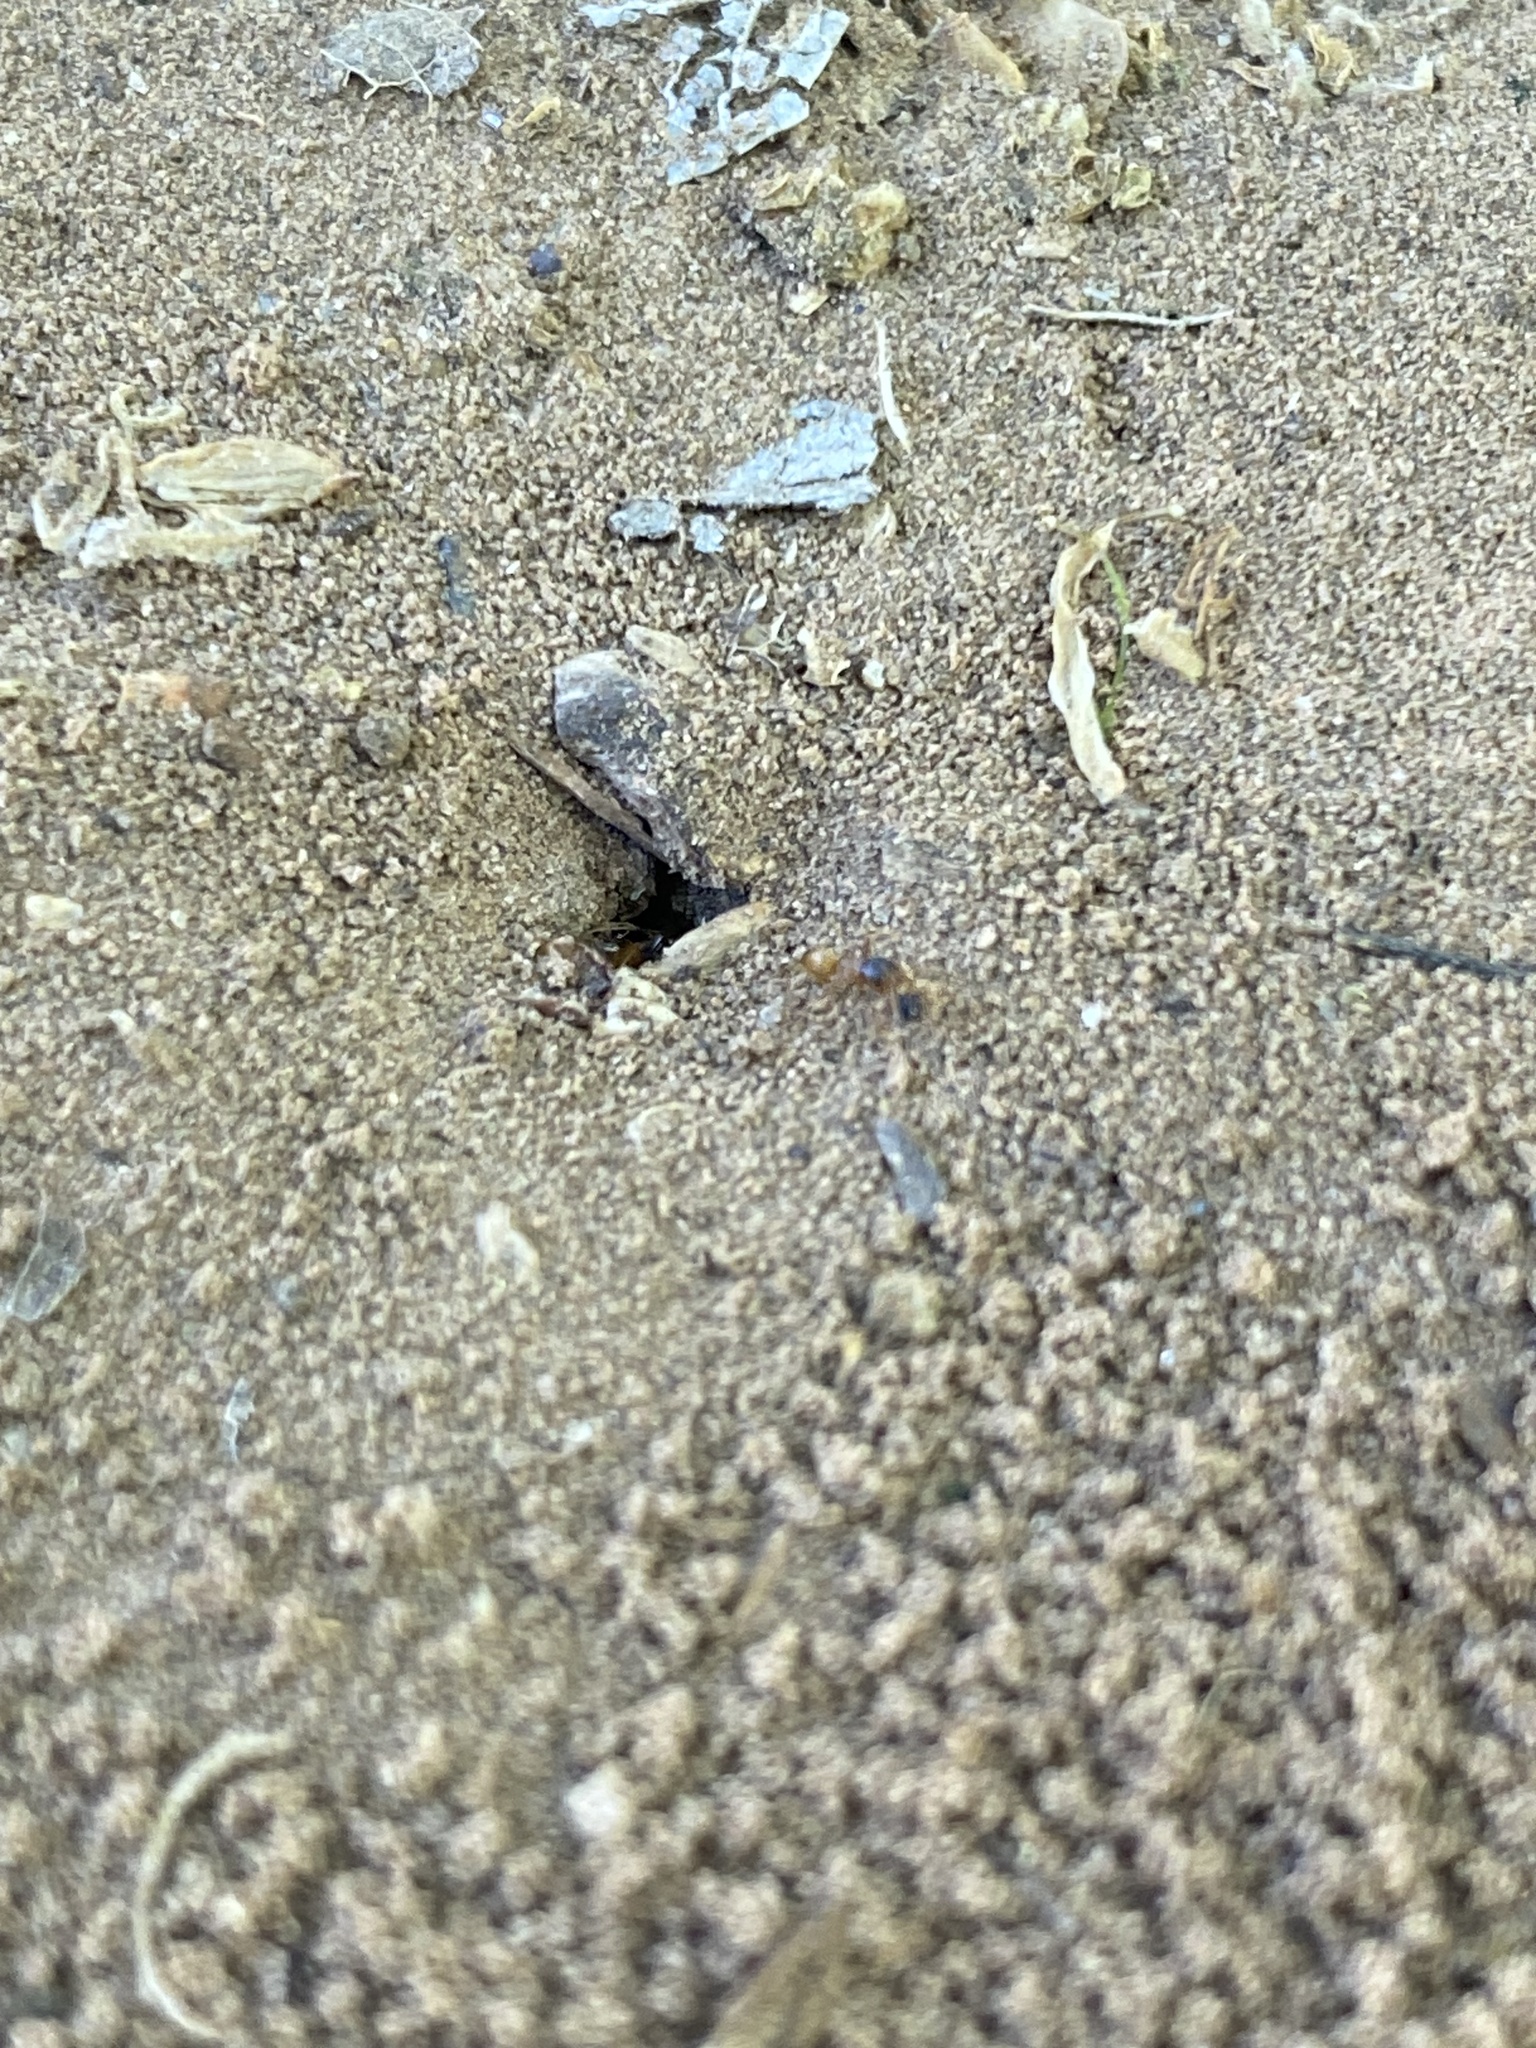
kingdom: Animalia
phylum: Arthropoda
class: Insecta
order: Hymenoptera
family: Formicidae
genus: Dorymyrmex
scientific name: Dorymyrmex flavus
